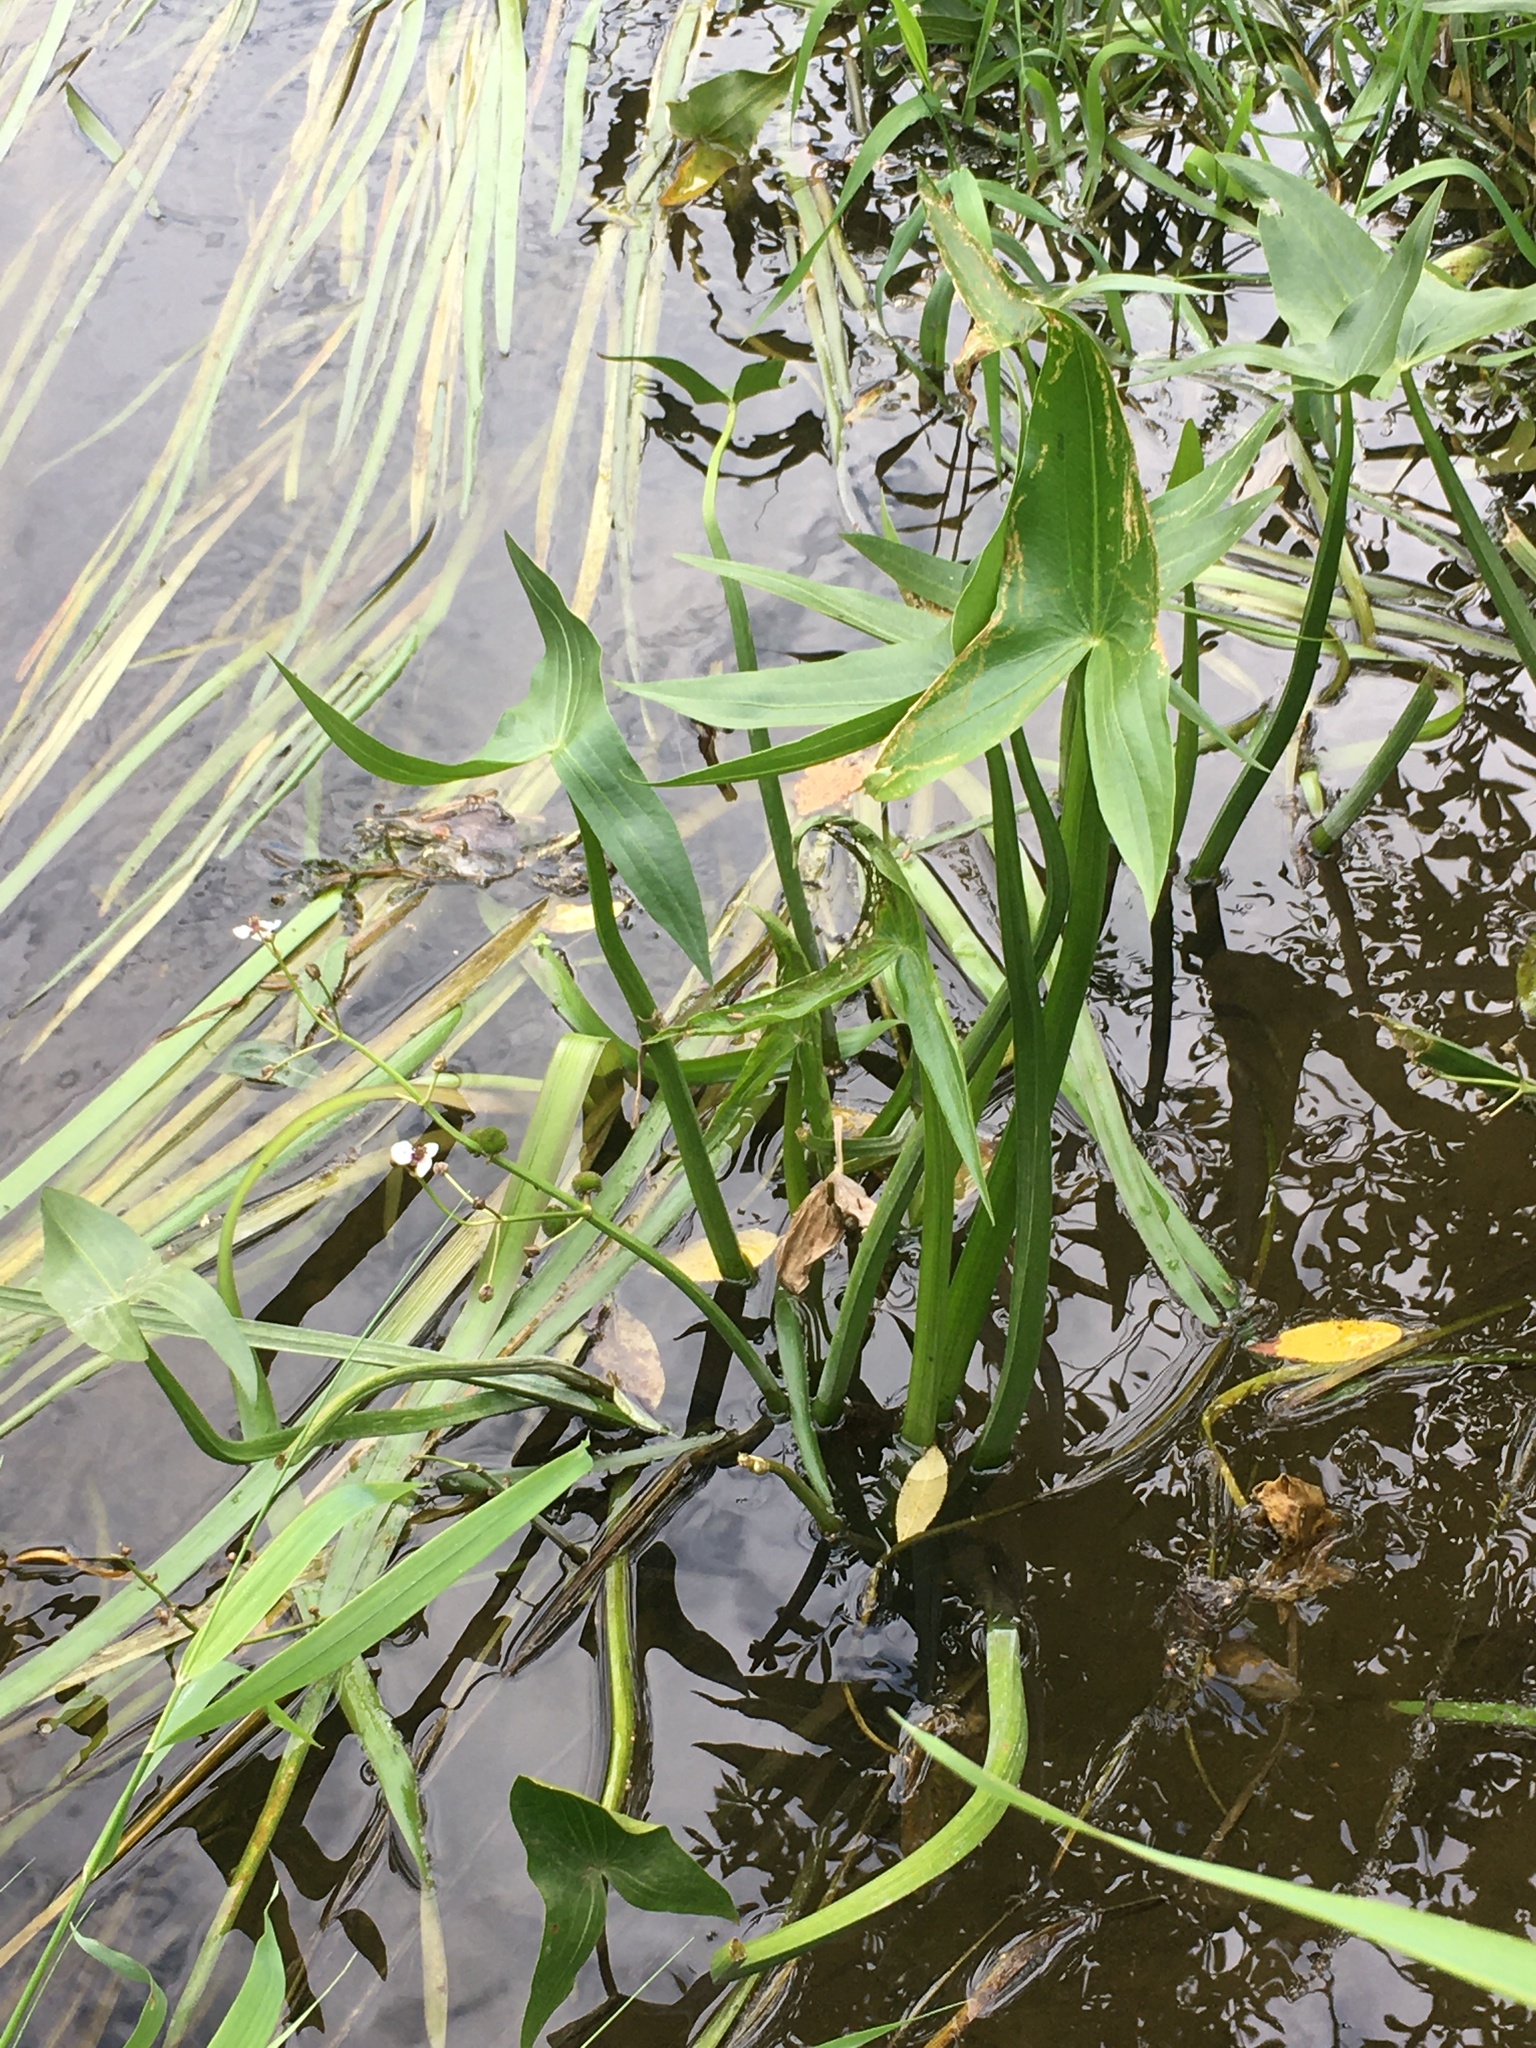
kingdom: Plantae
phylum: Tracheophyta
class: Liliopsida
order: Alismatales
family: Alismataceae
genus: Sagittaria
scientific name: Sagittaria sagittifolia
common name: Arrowhead
